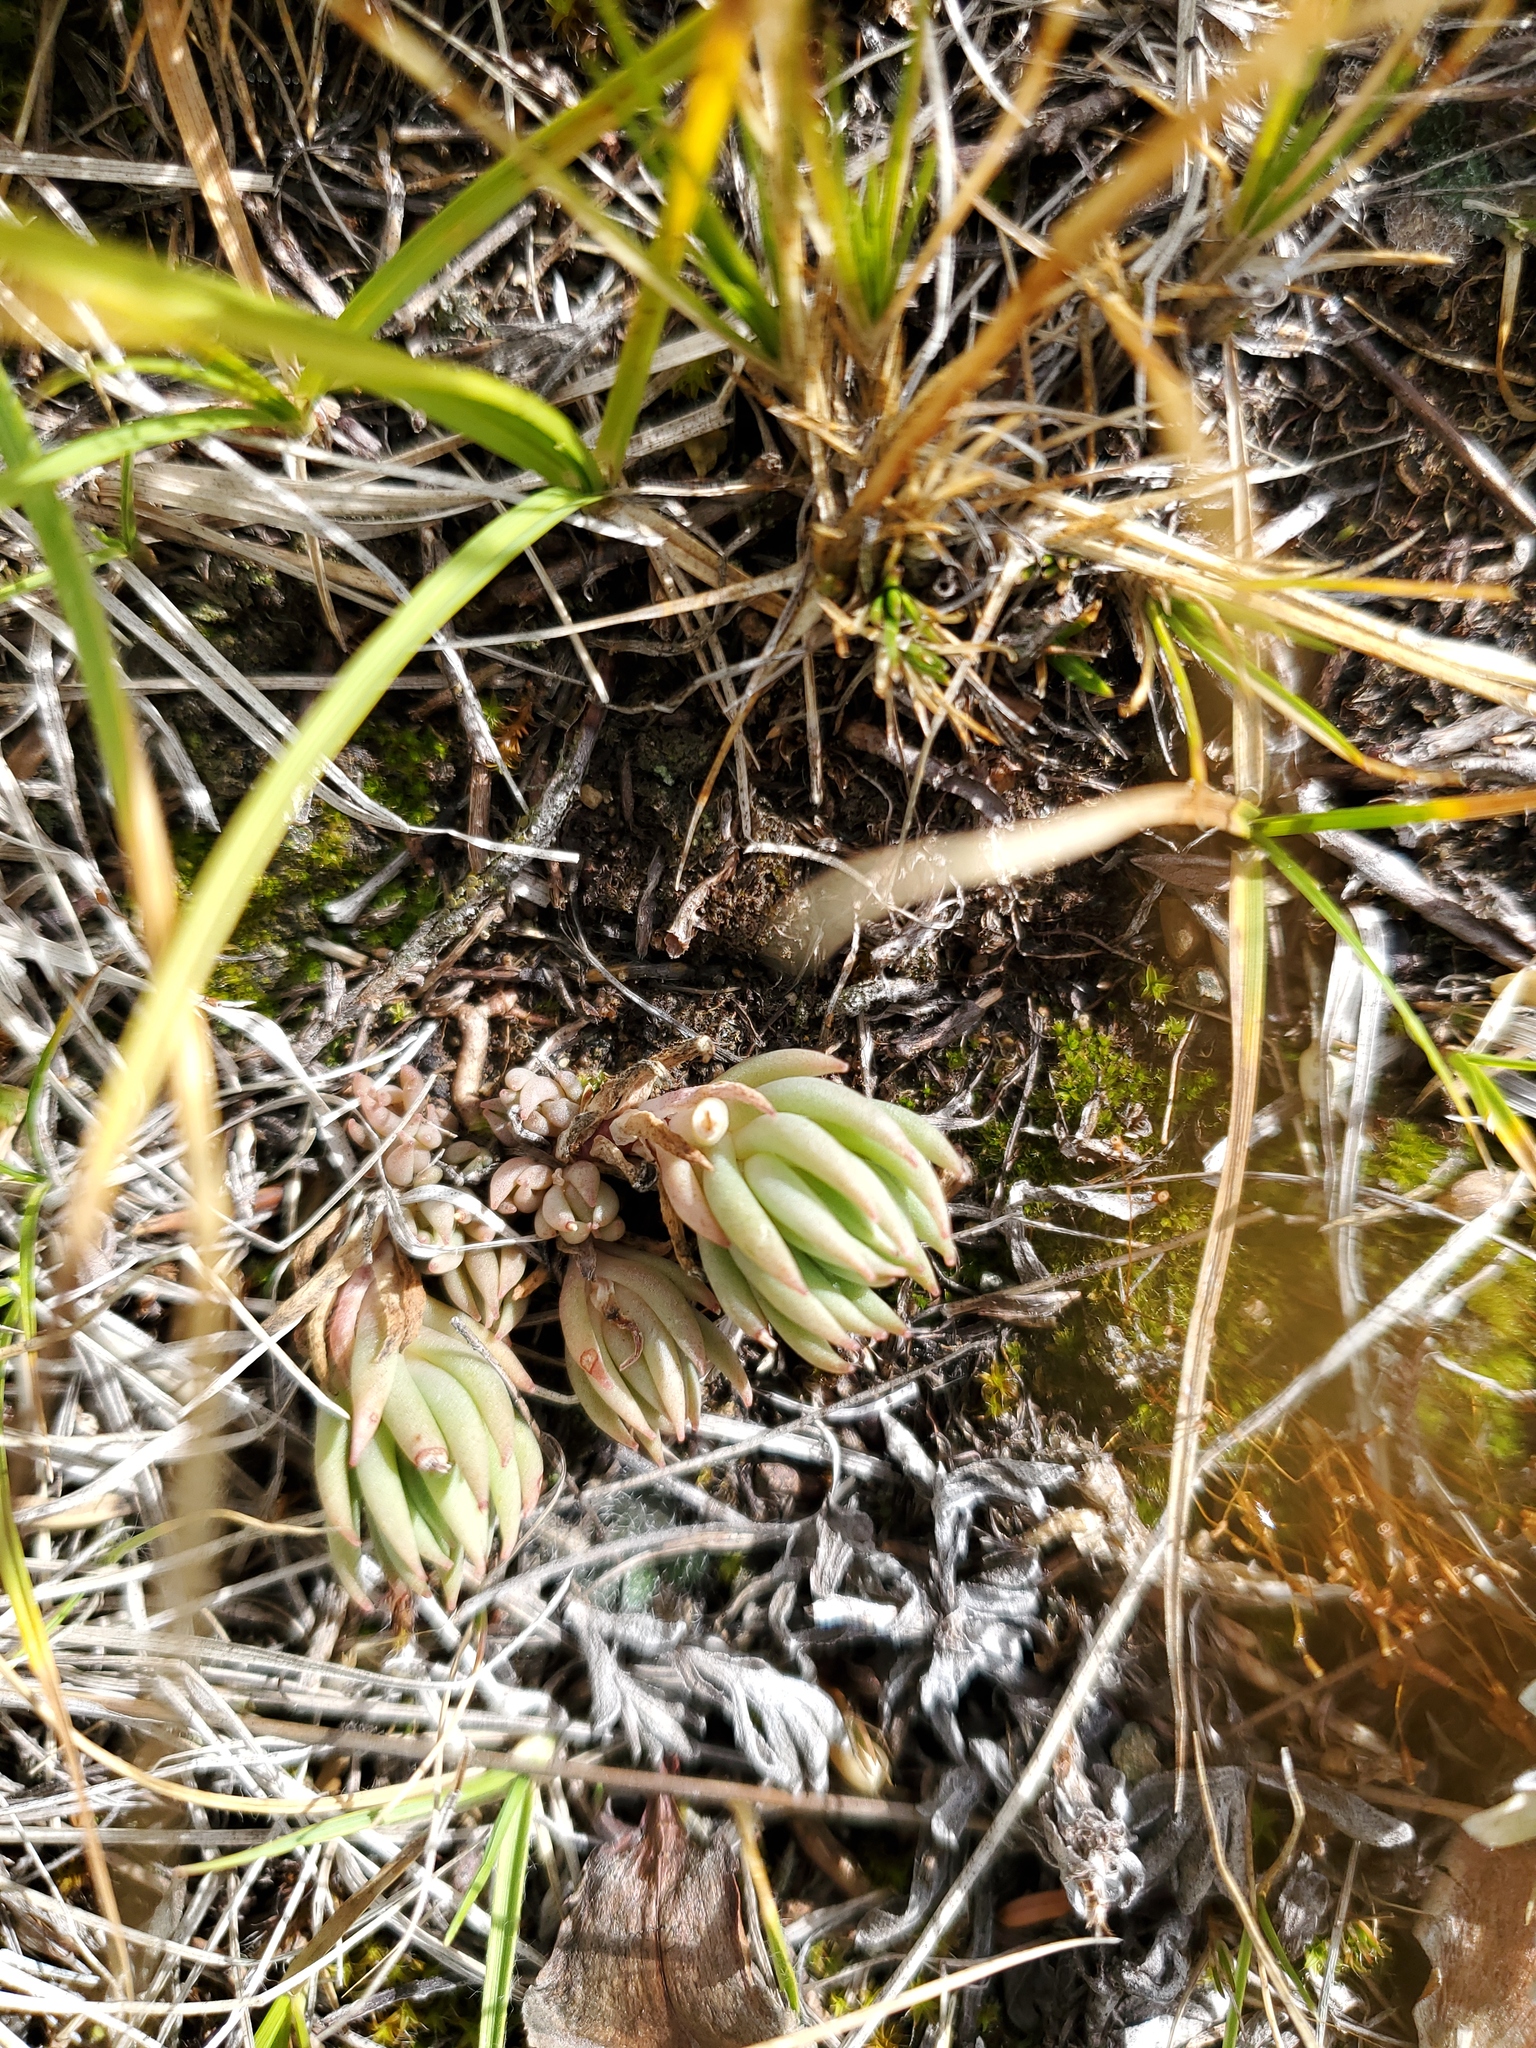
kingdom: Plantae
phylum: Tracheophyta
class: Magnoliopsida
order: Saxifragales
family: Crassulaceae
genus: Sedum
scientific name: Sedum lanceolatum
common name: Common stonecrop
